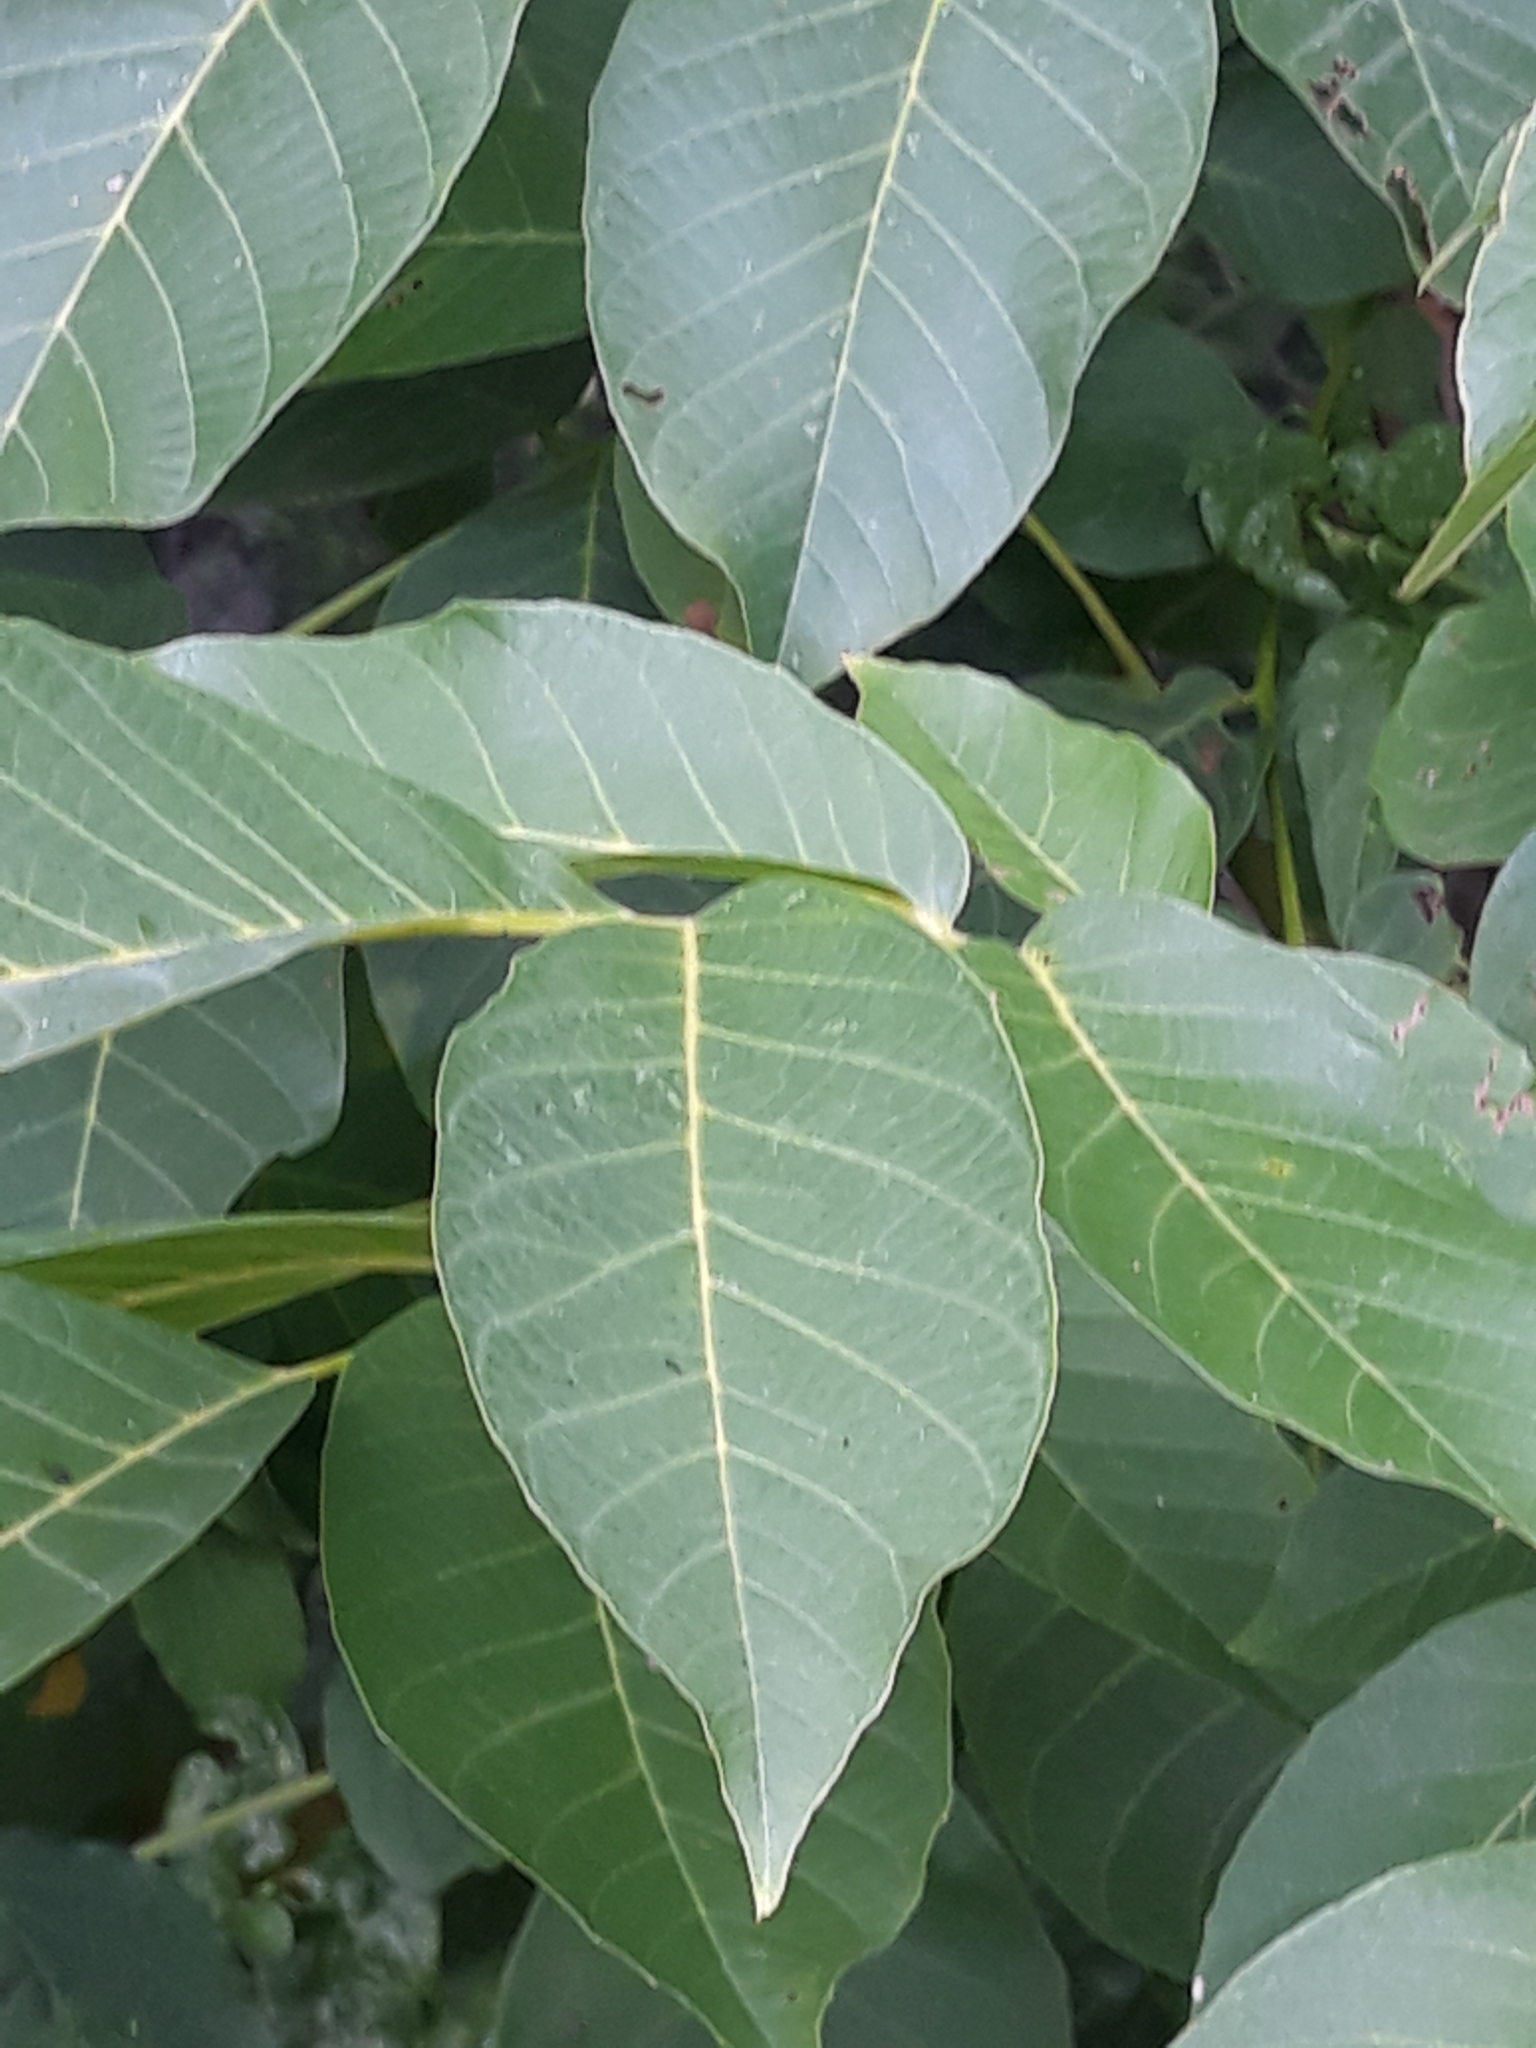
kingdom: Plantae
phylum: Tracheophyta
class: Magnoliopsida
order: Fagales
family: Juglandaceae
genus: Juglans
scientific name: Juglans regia
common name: Walnut
